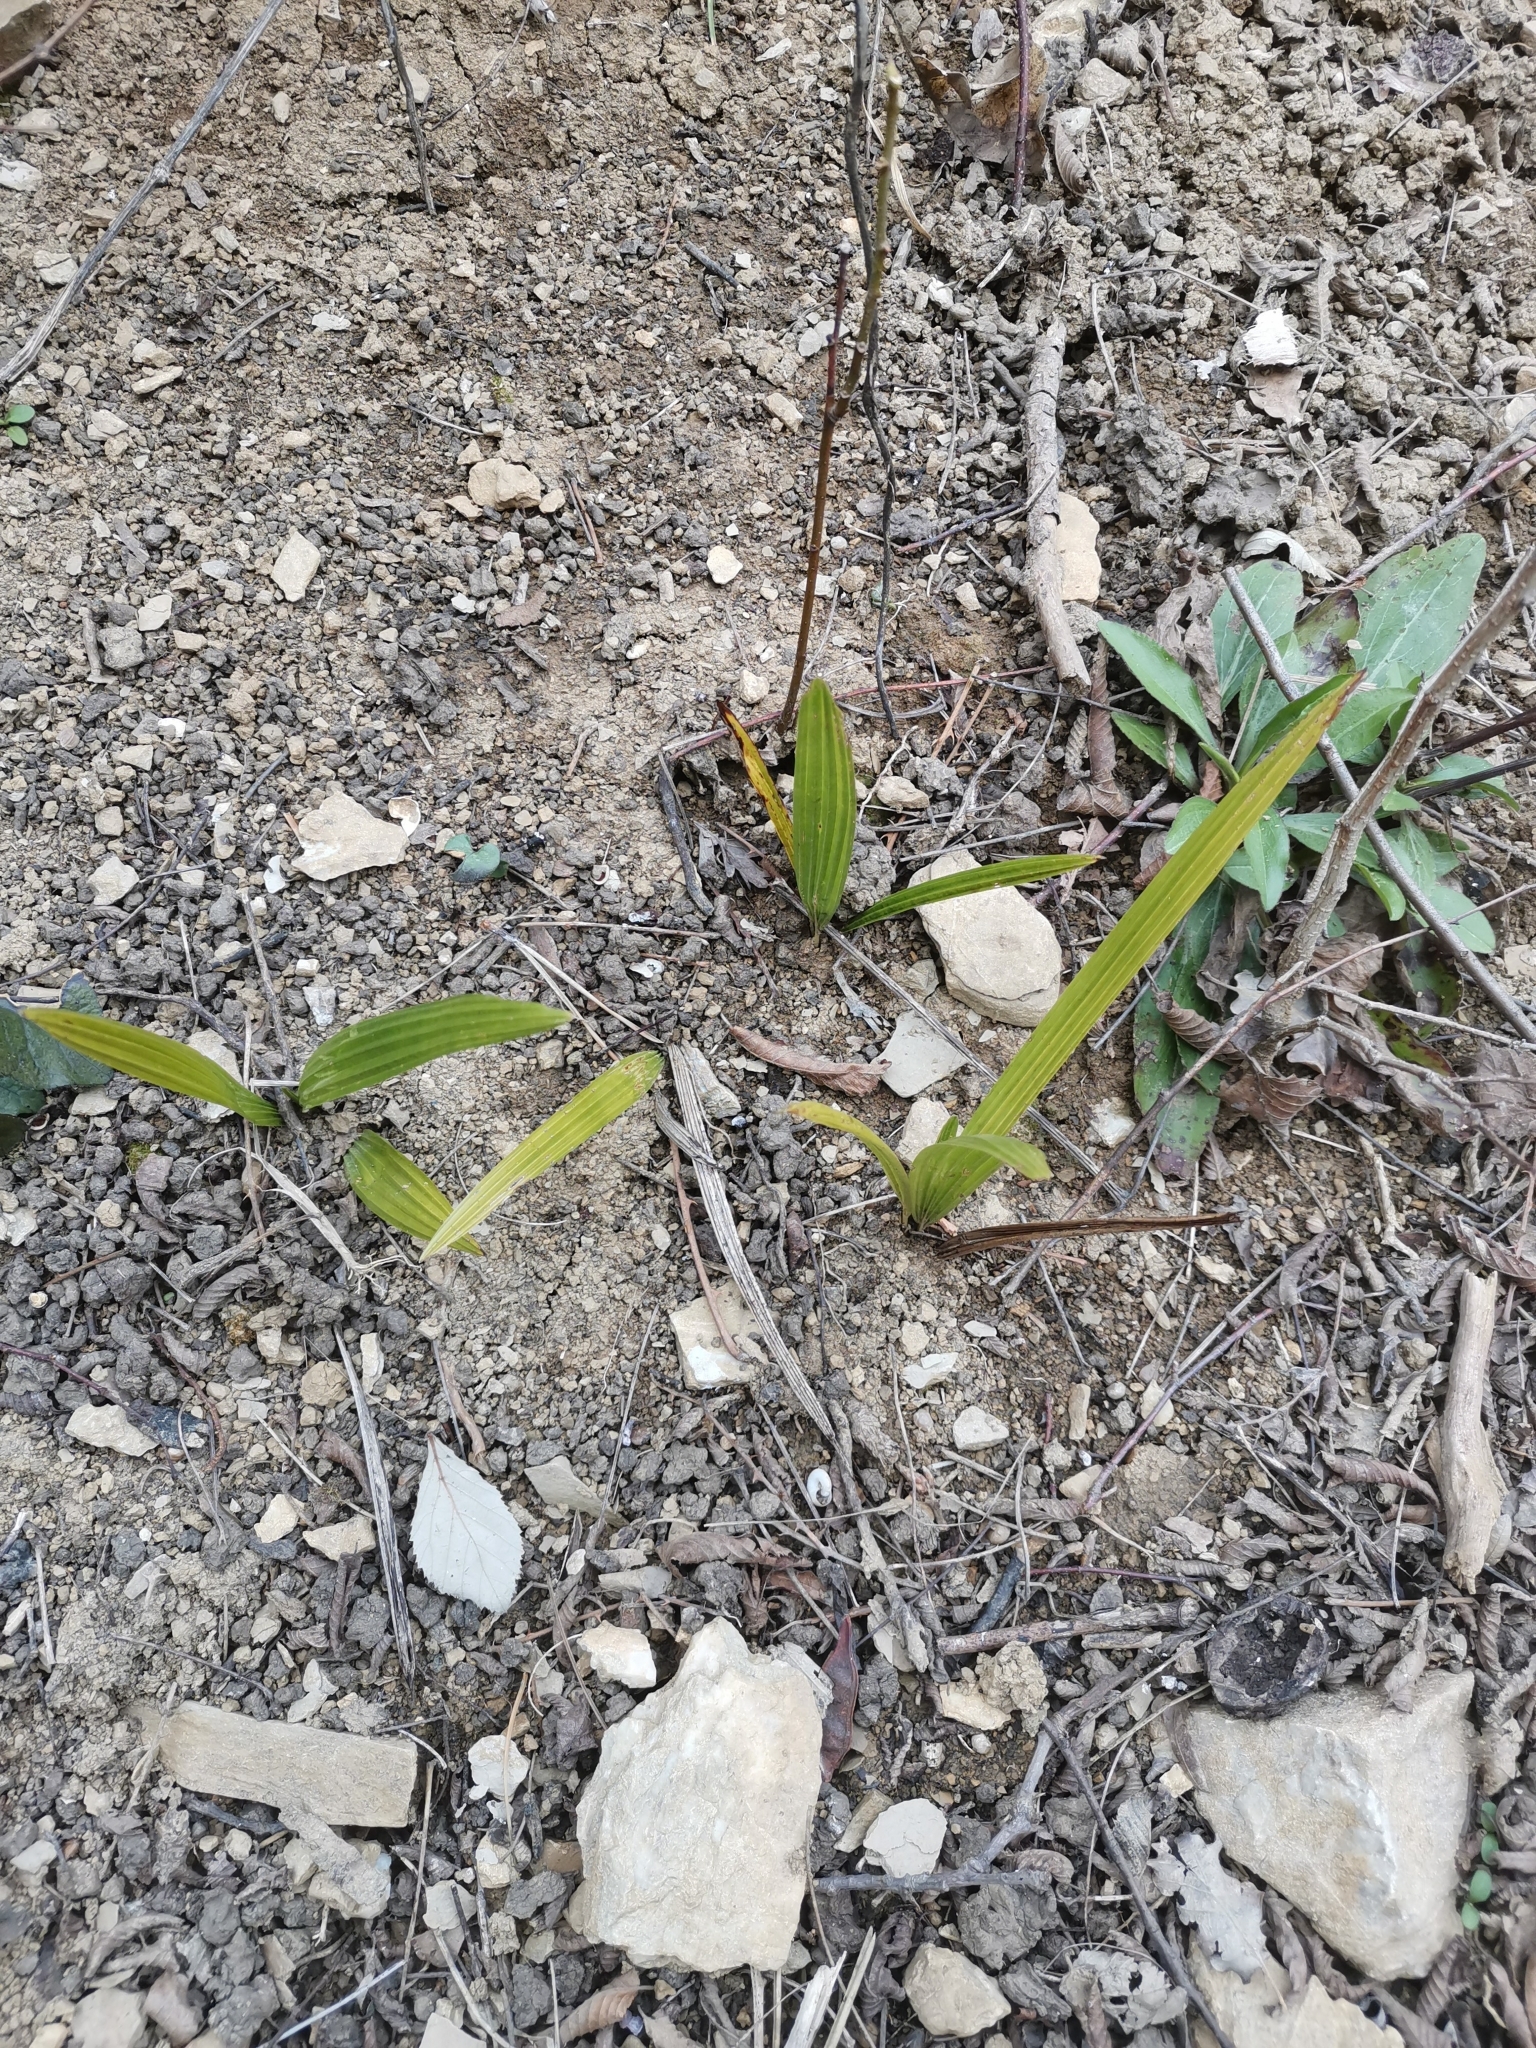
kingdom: Plantae
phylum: Tracheophyta
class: Liliopsida
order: Arecales
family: Arecaceae
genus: Trachycarpus
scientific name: Trachycarpus fortunei
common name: Chusan palm
